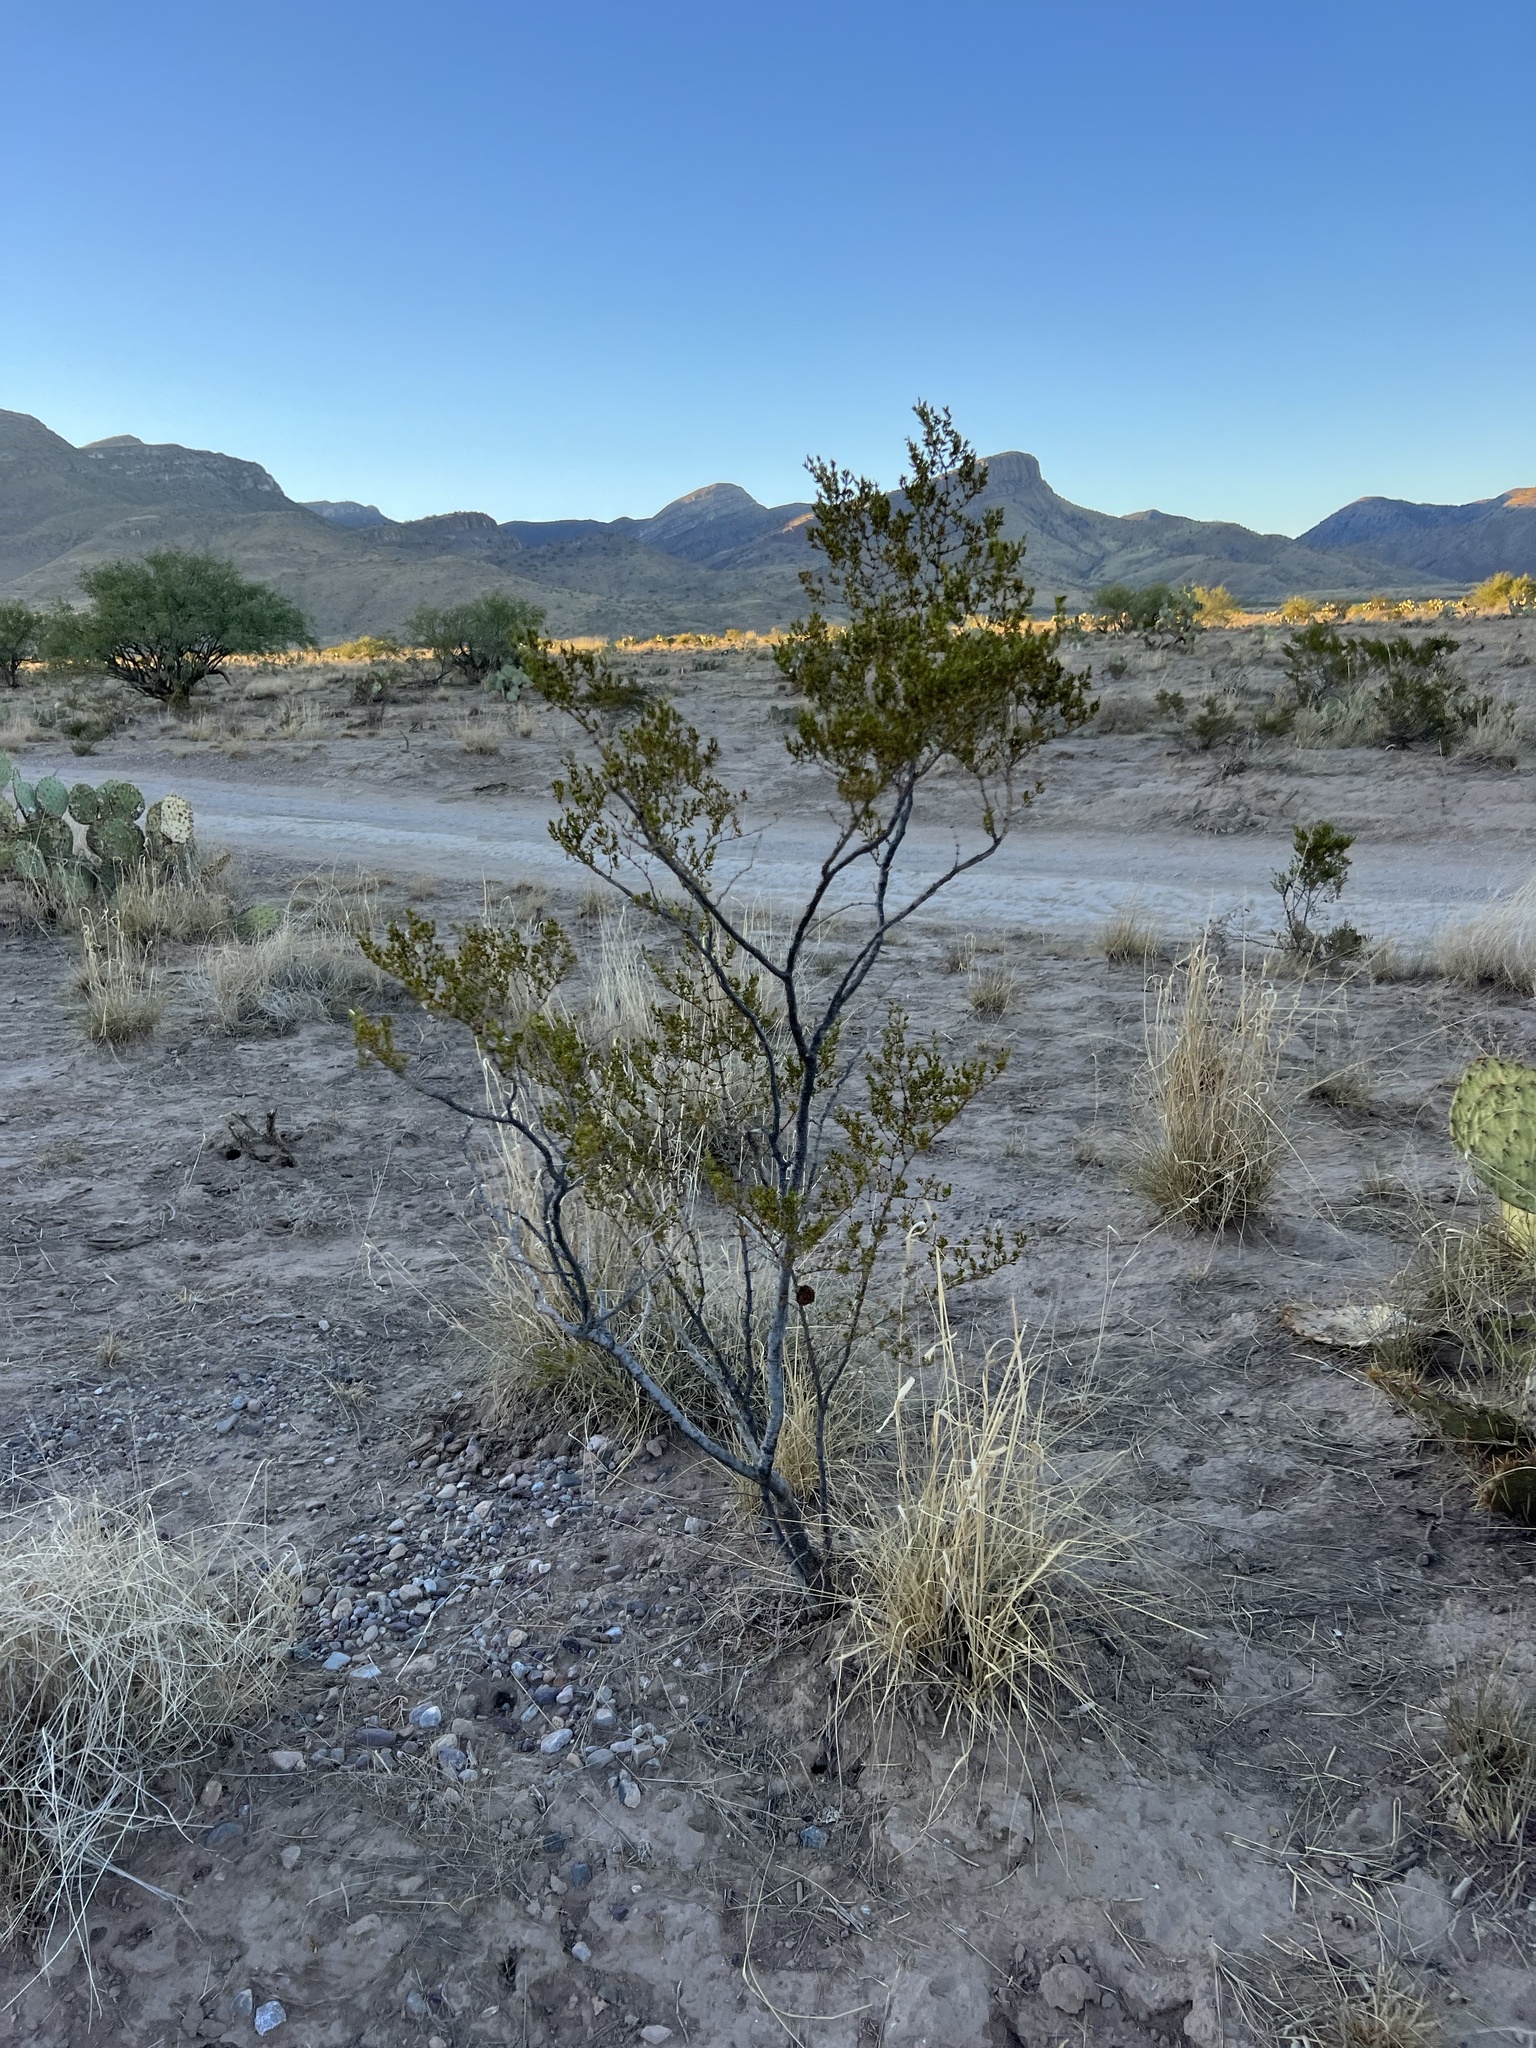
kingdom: Plantae
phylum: Tracheophyta
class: Magnoliopsida
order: Zygophyllales
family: Zygophyllaceae
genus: Larrea
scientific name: Larrea tridentata
